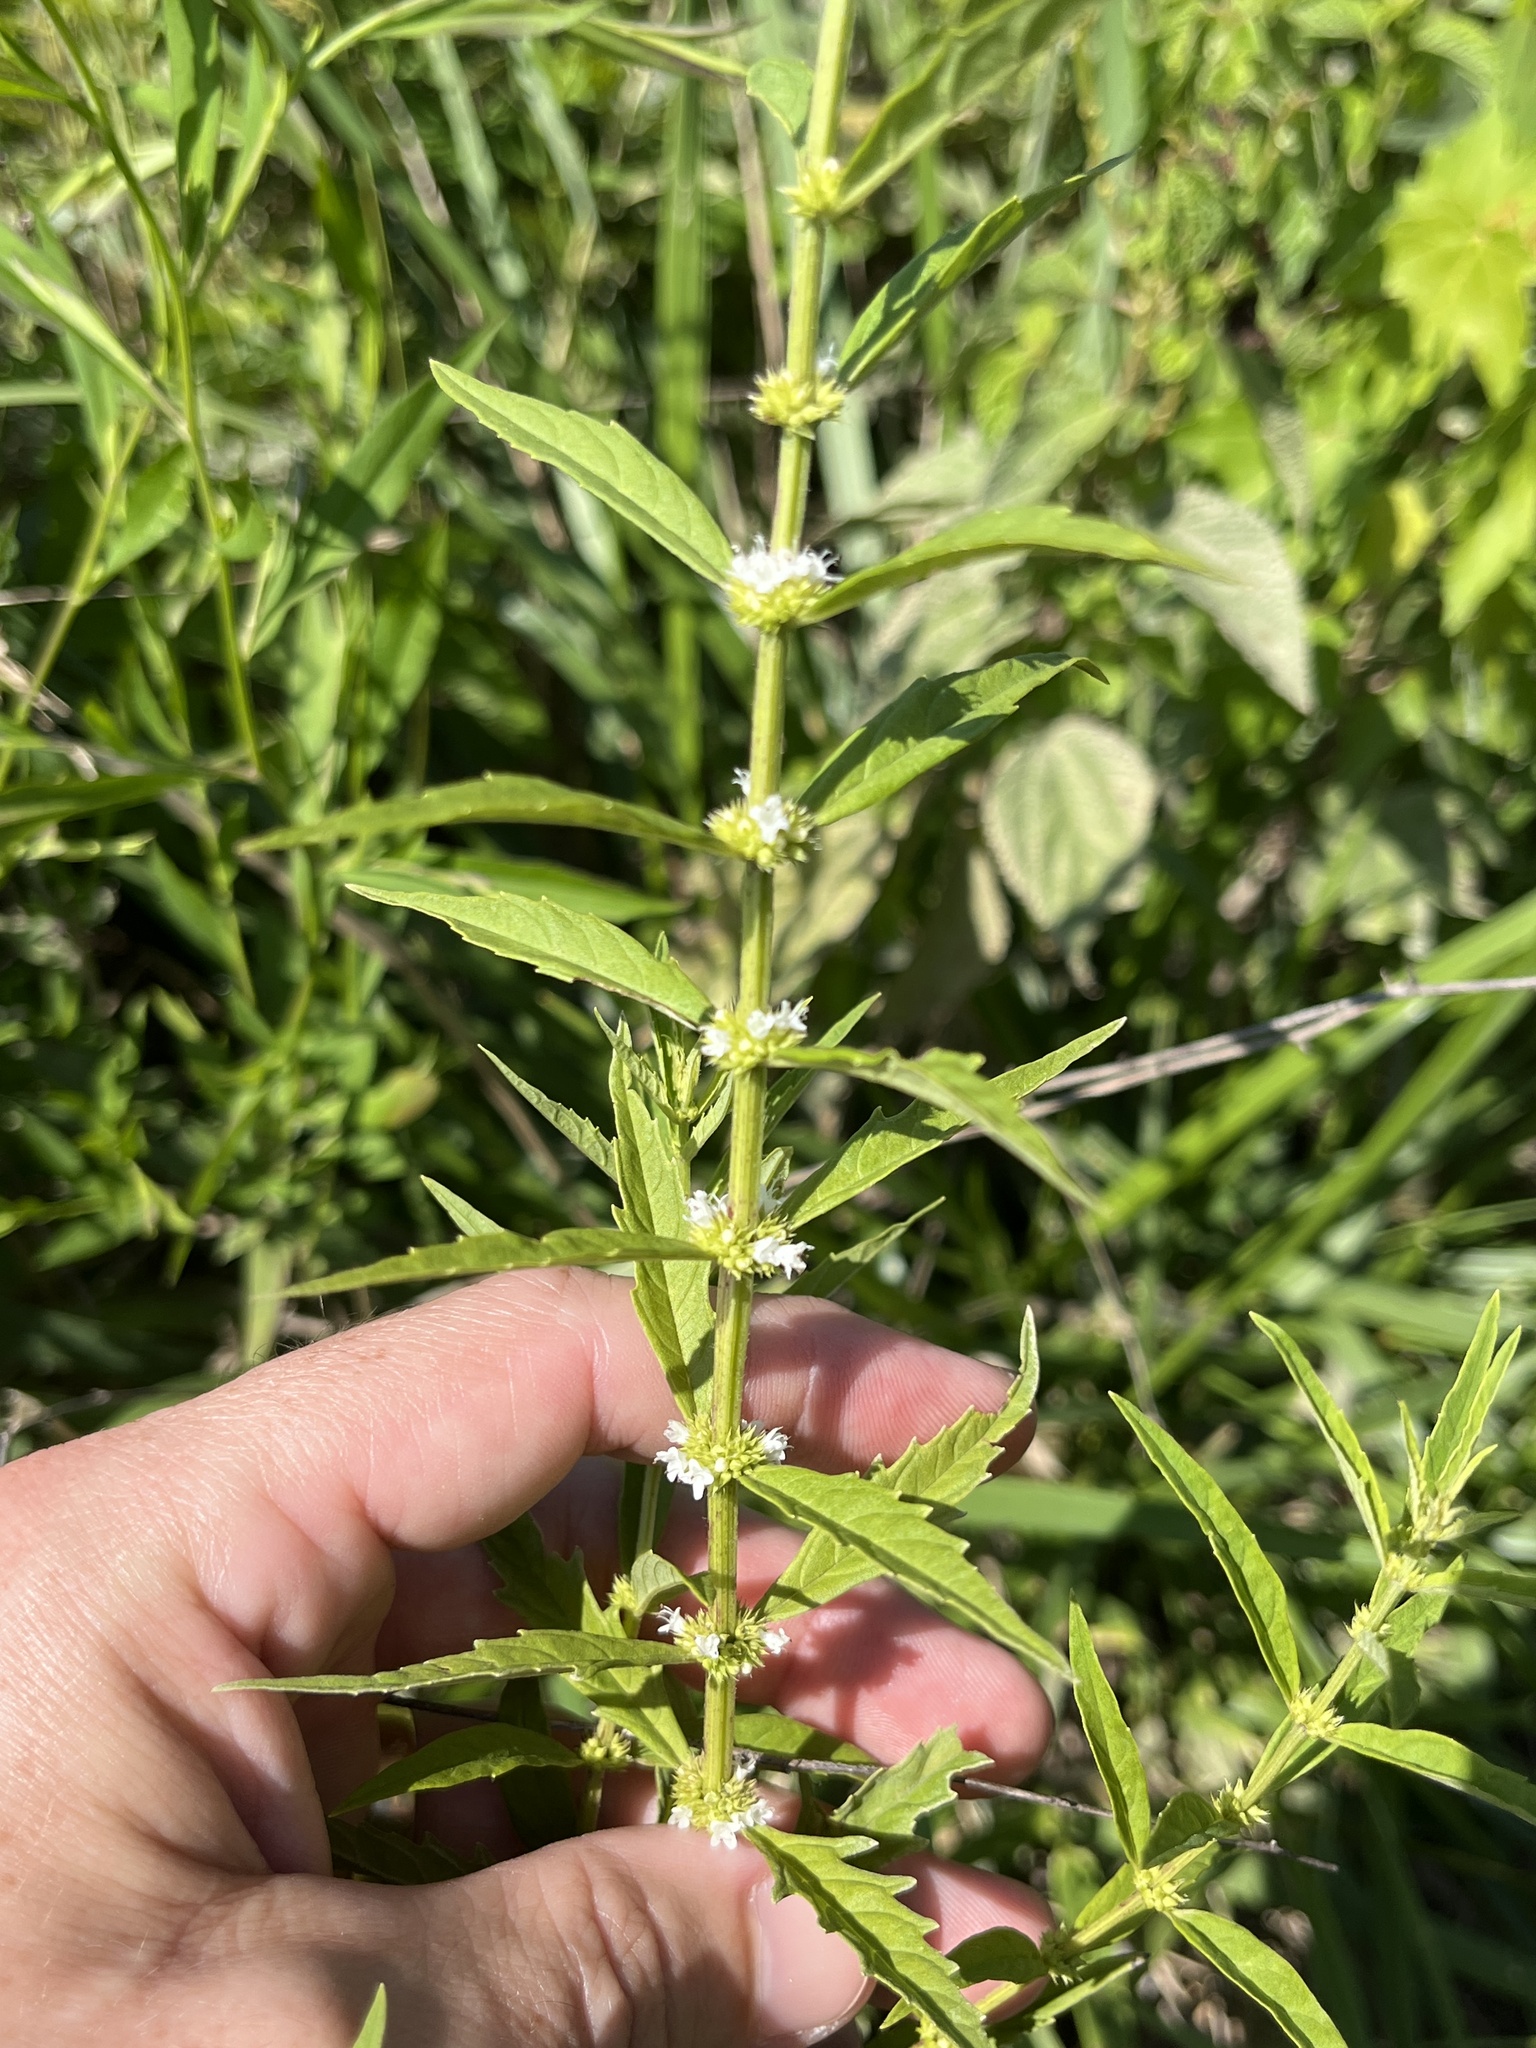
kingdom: Plantae
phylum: Tracheophyta
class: Magnoliopsida
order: Lamiales
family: Lamiaceae
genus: Lycopus
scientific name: Lycopus americanus
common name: American bugleweed
